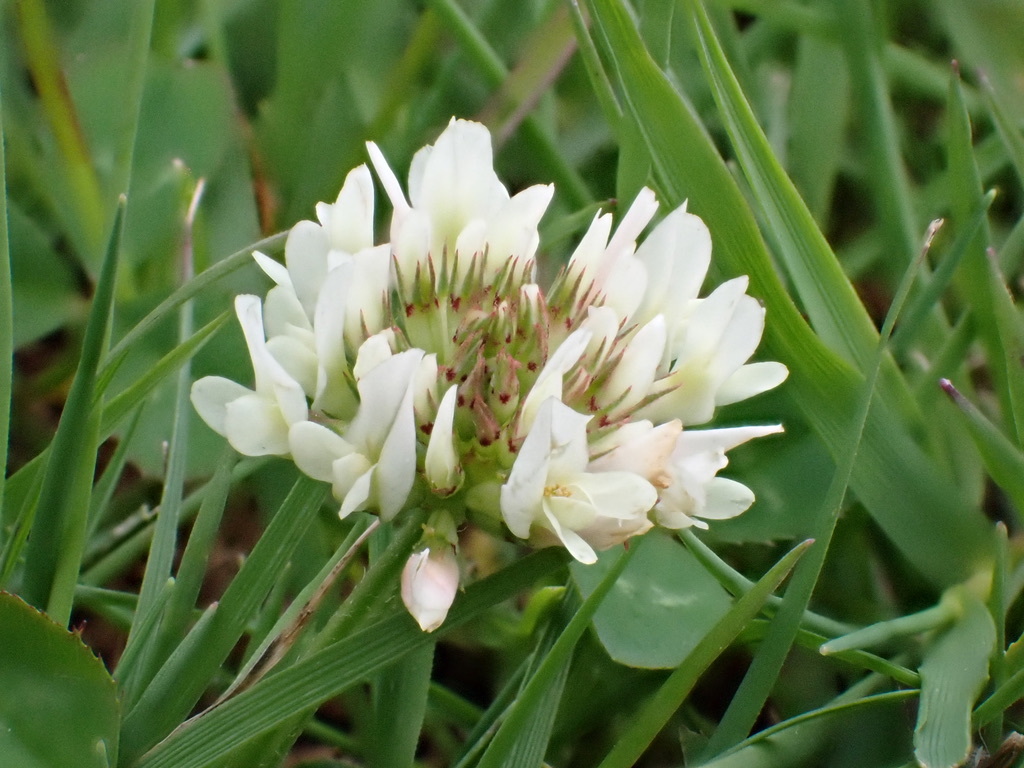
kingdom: Plantae
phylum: Tracheophyta
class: Magnoliopsida
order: Fabales
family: Fabaceae
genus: Trifolium
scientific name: Trifolium repens
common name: White clover
